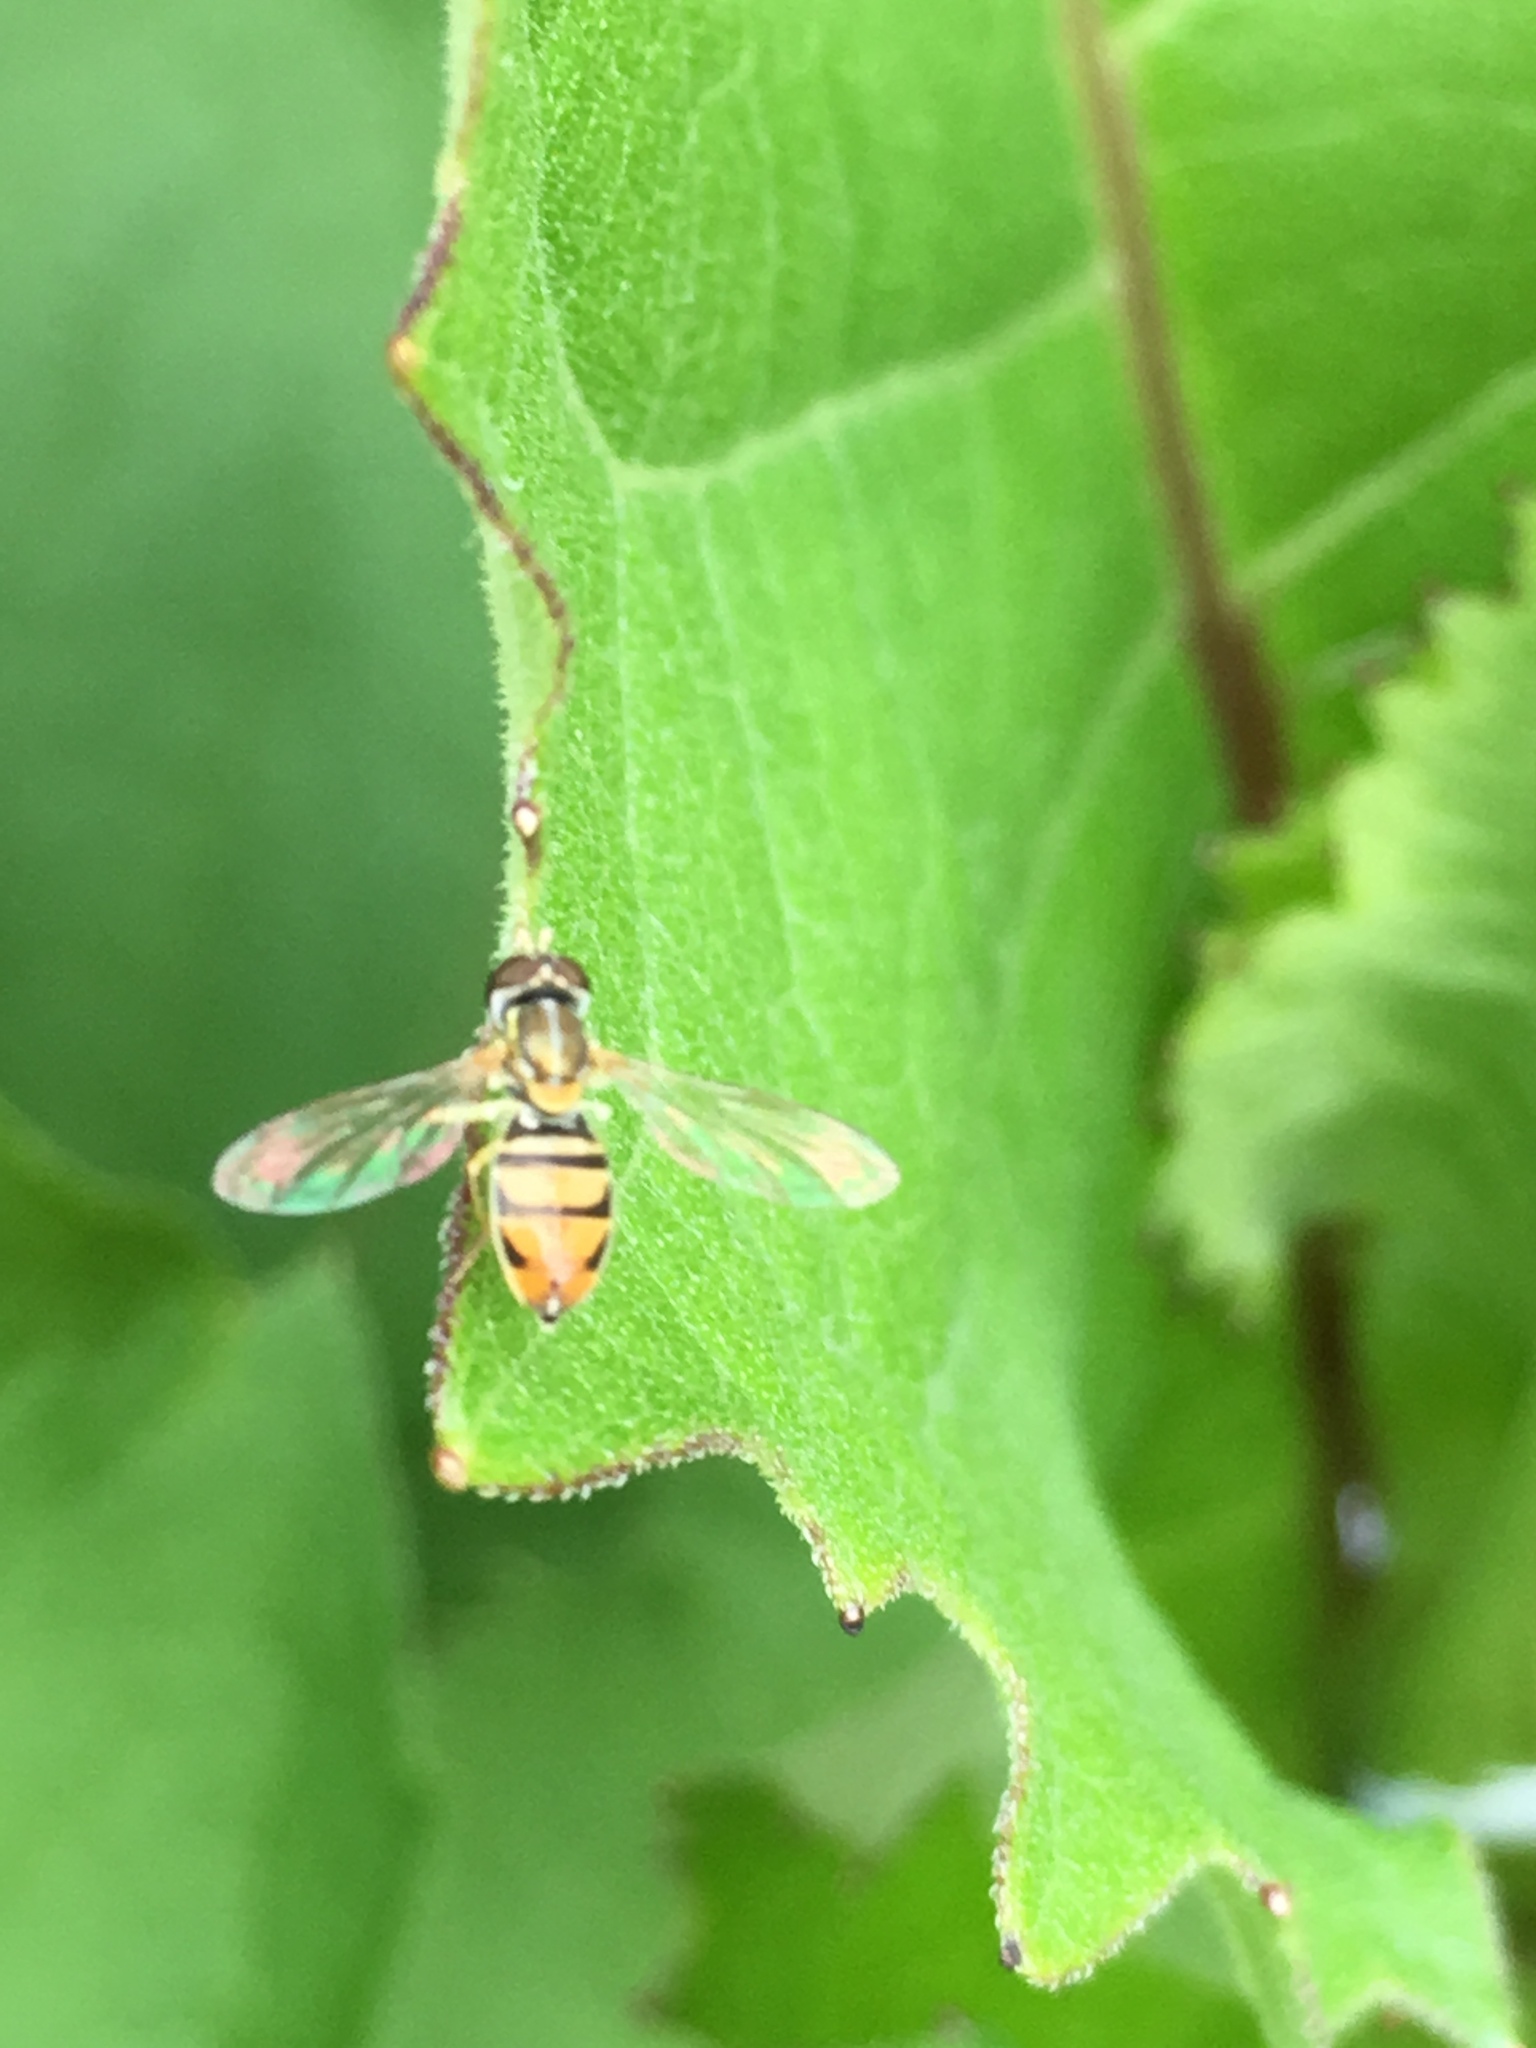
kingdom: Animalia
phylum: Arthropoda
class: Insecta
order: Diptera
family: Syrphidae
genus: Toxomerus
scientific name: Toxomerus marginatus
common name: Syrphid fly
